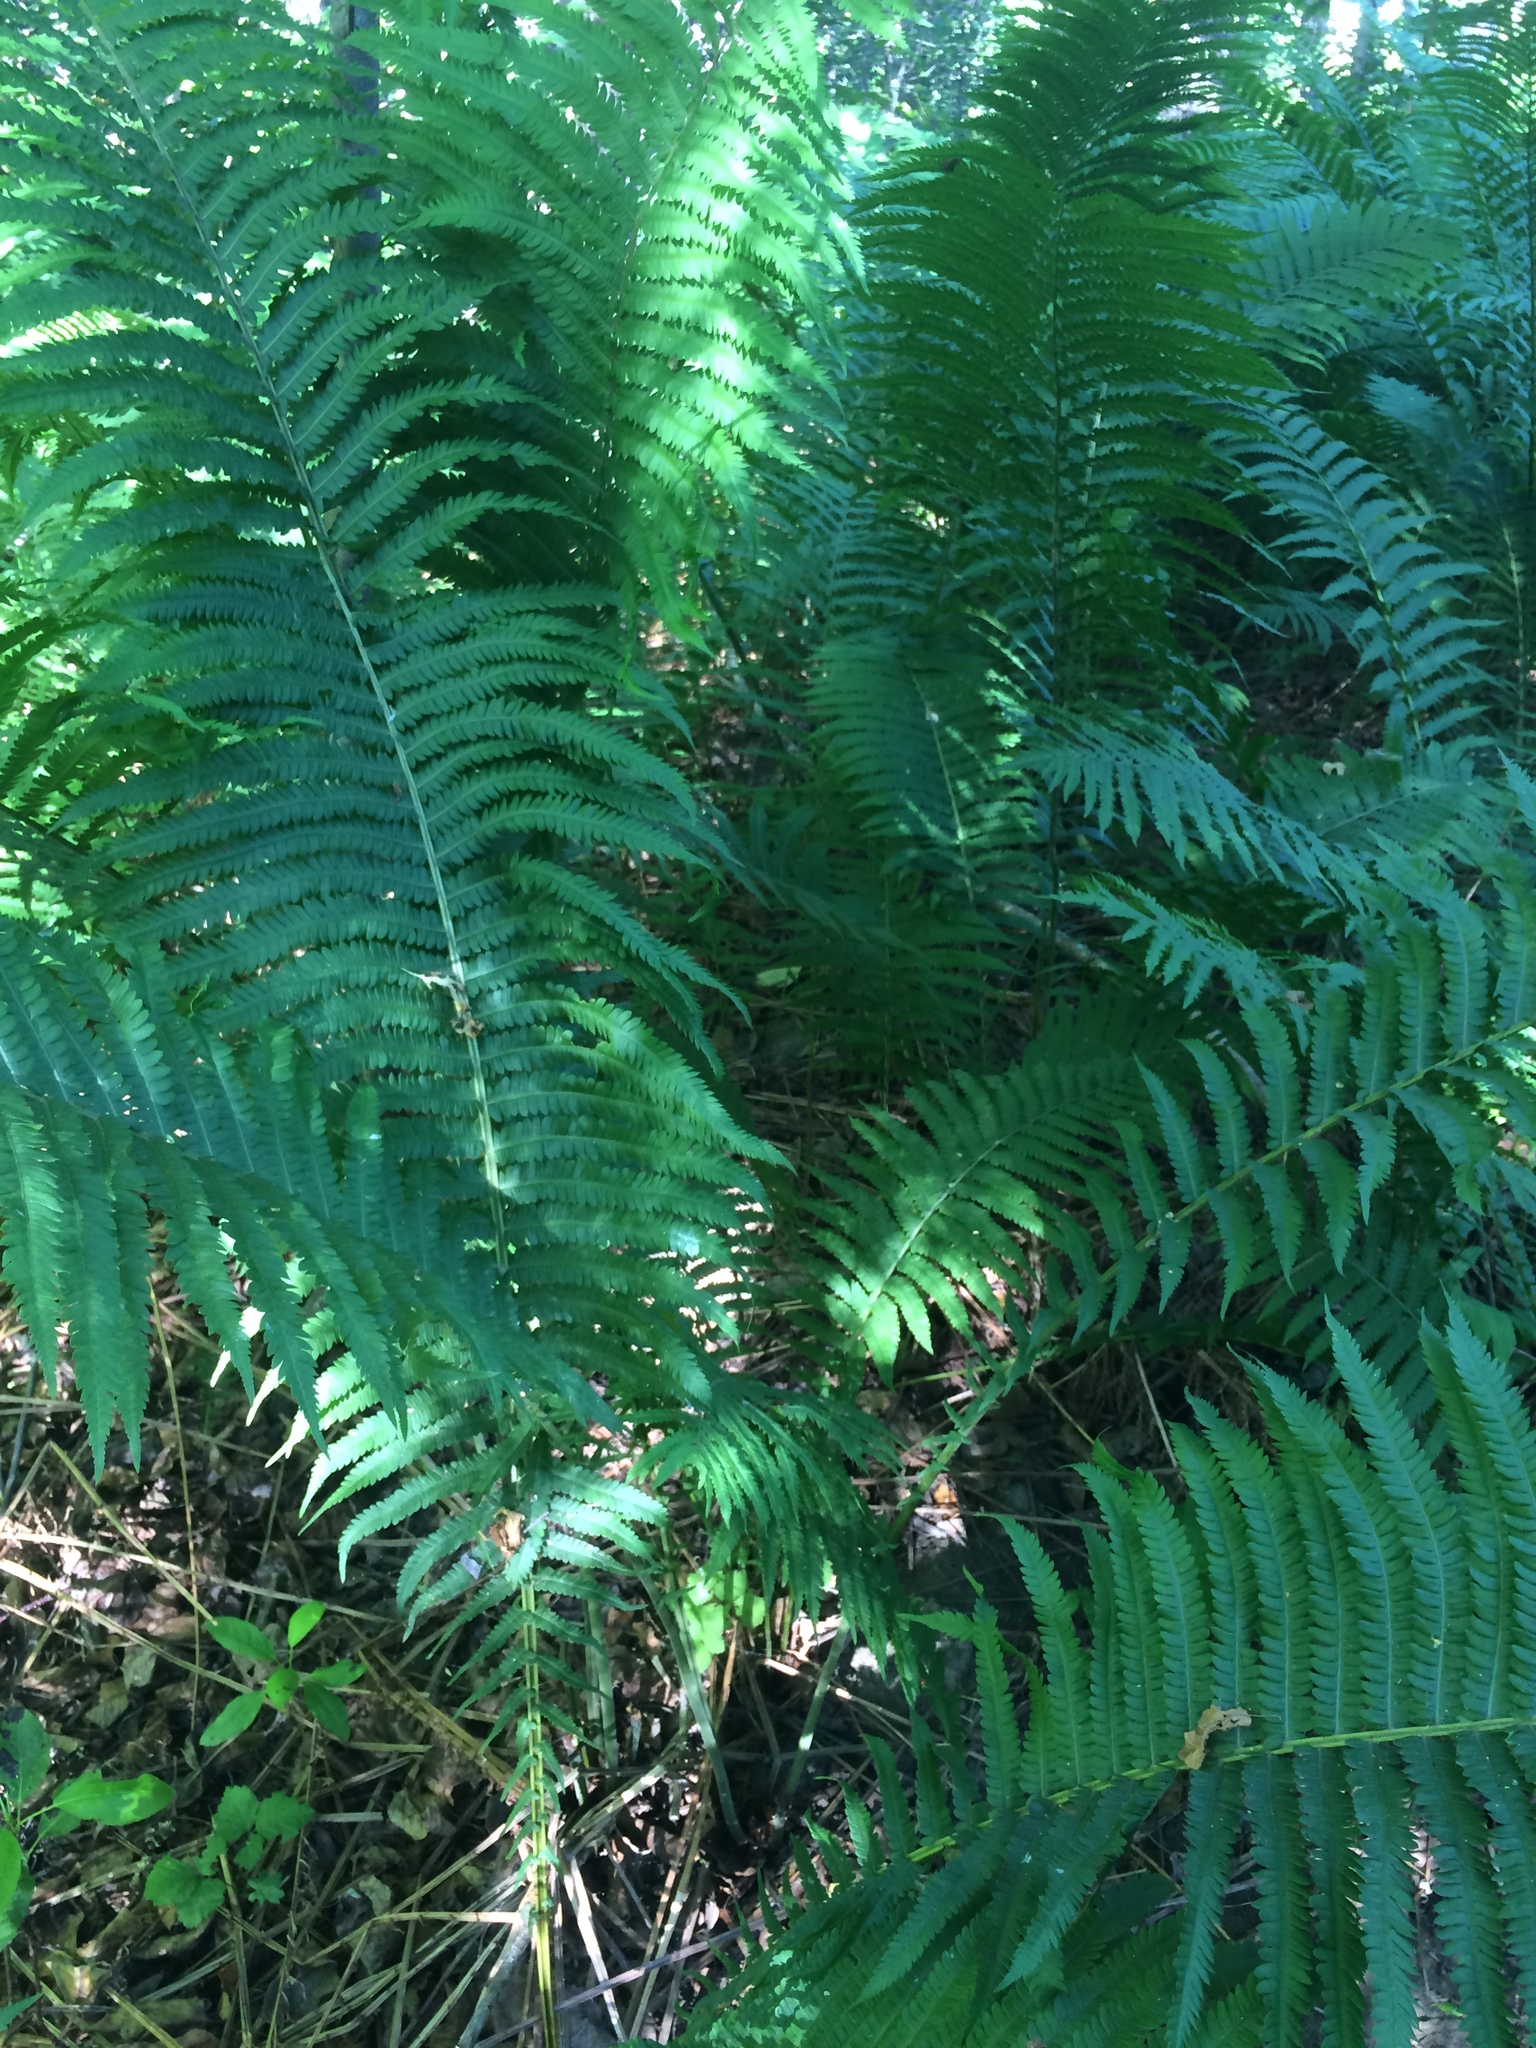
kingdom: Plantae
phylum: Tracheophyta
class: Polypodiopsida
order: Polypodiales
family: Onocleaceae
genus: Matteuccia
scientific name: Matteuccia struthiopteris
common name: Ostrich fern
